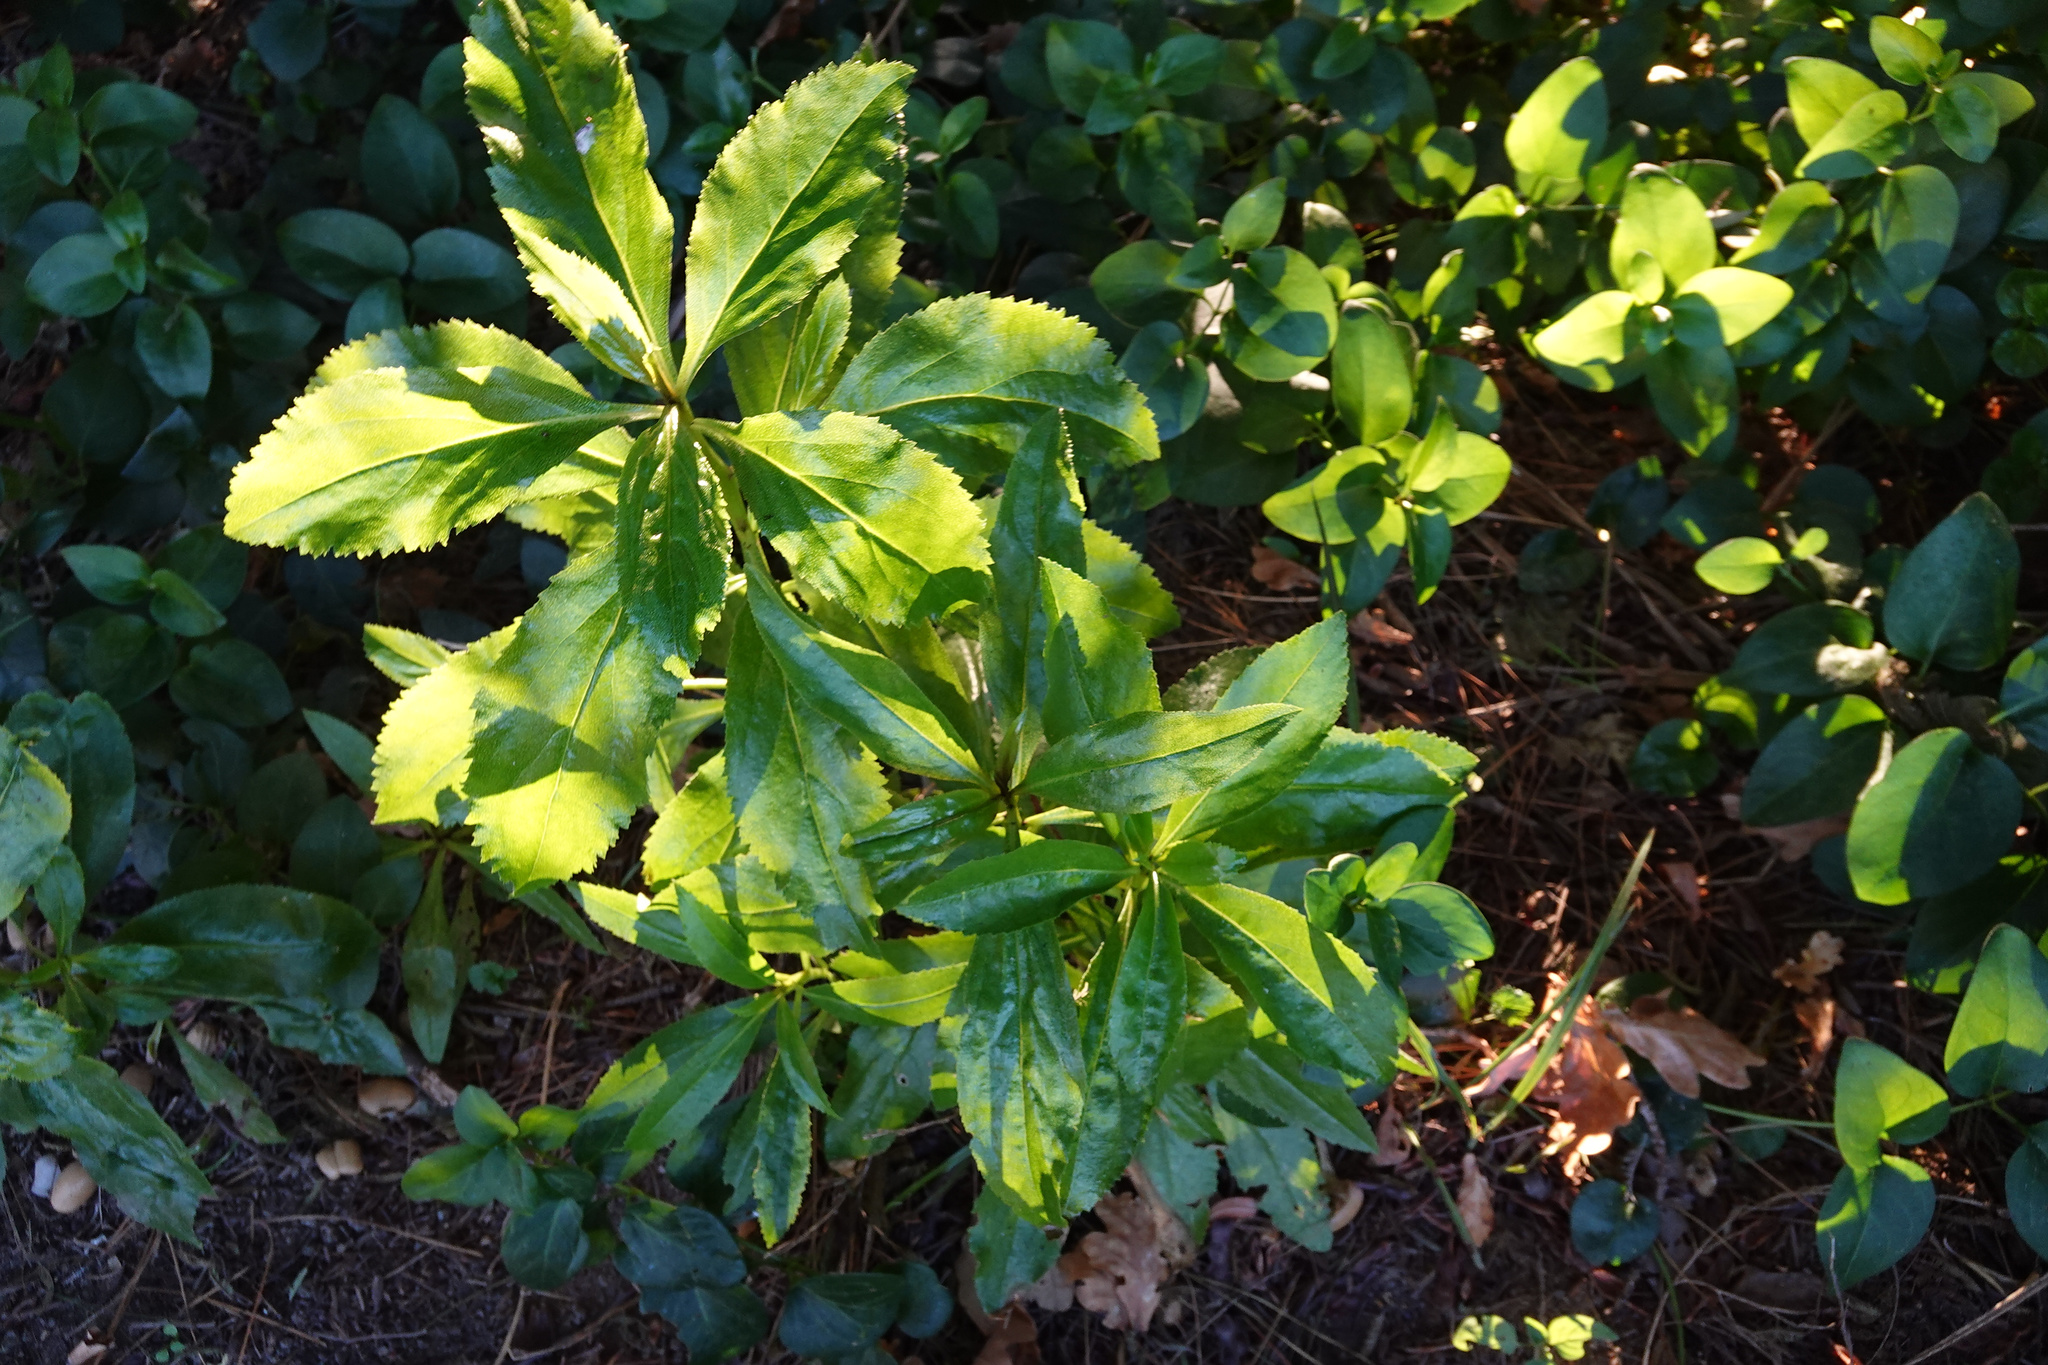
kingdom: Plantae
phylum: Tracheophyta
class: Magnoliopsida
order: Lamiales
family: Scrophulariaceae
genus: Myoporum
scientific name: Myoporum laetum
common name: Ngaio tree
